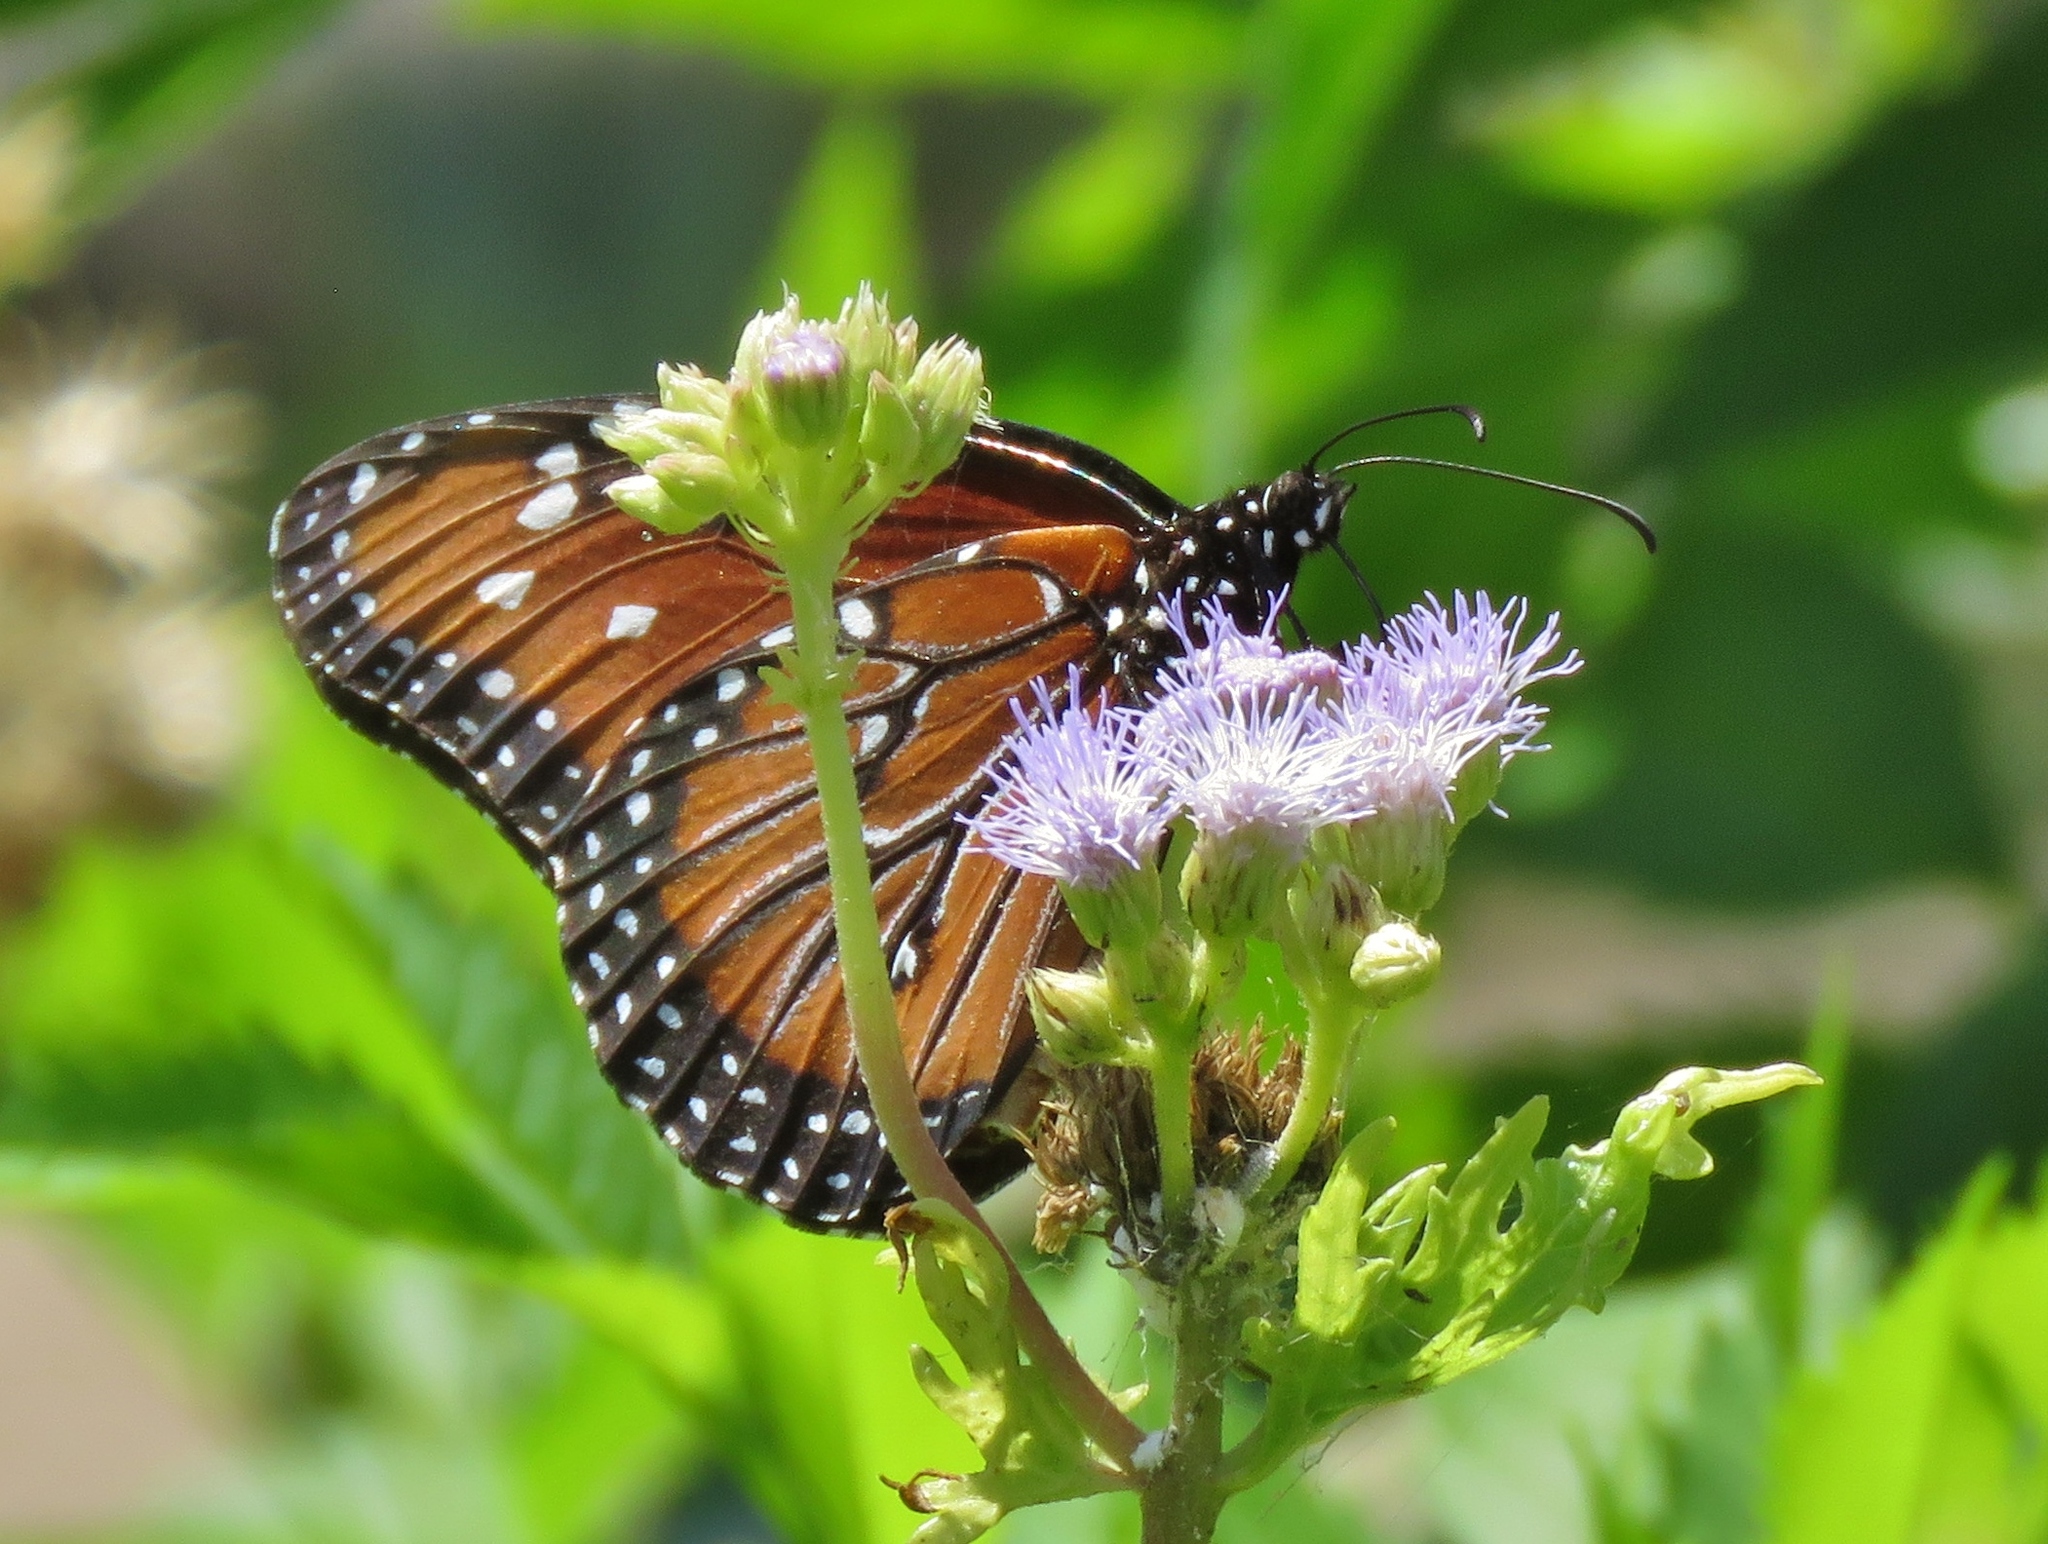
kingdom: Animalia
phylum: Arthropoda
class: Insecta
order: Lepidoptera
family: Nymphalidae
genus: Danaus
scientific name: Danaus gilippus
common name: Queen
